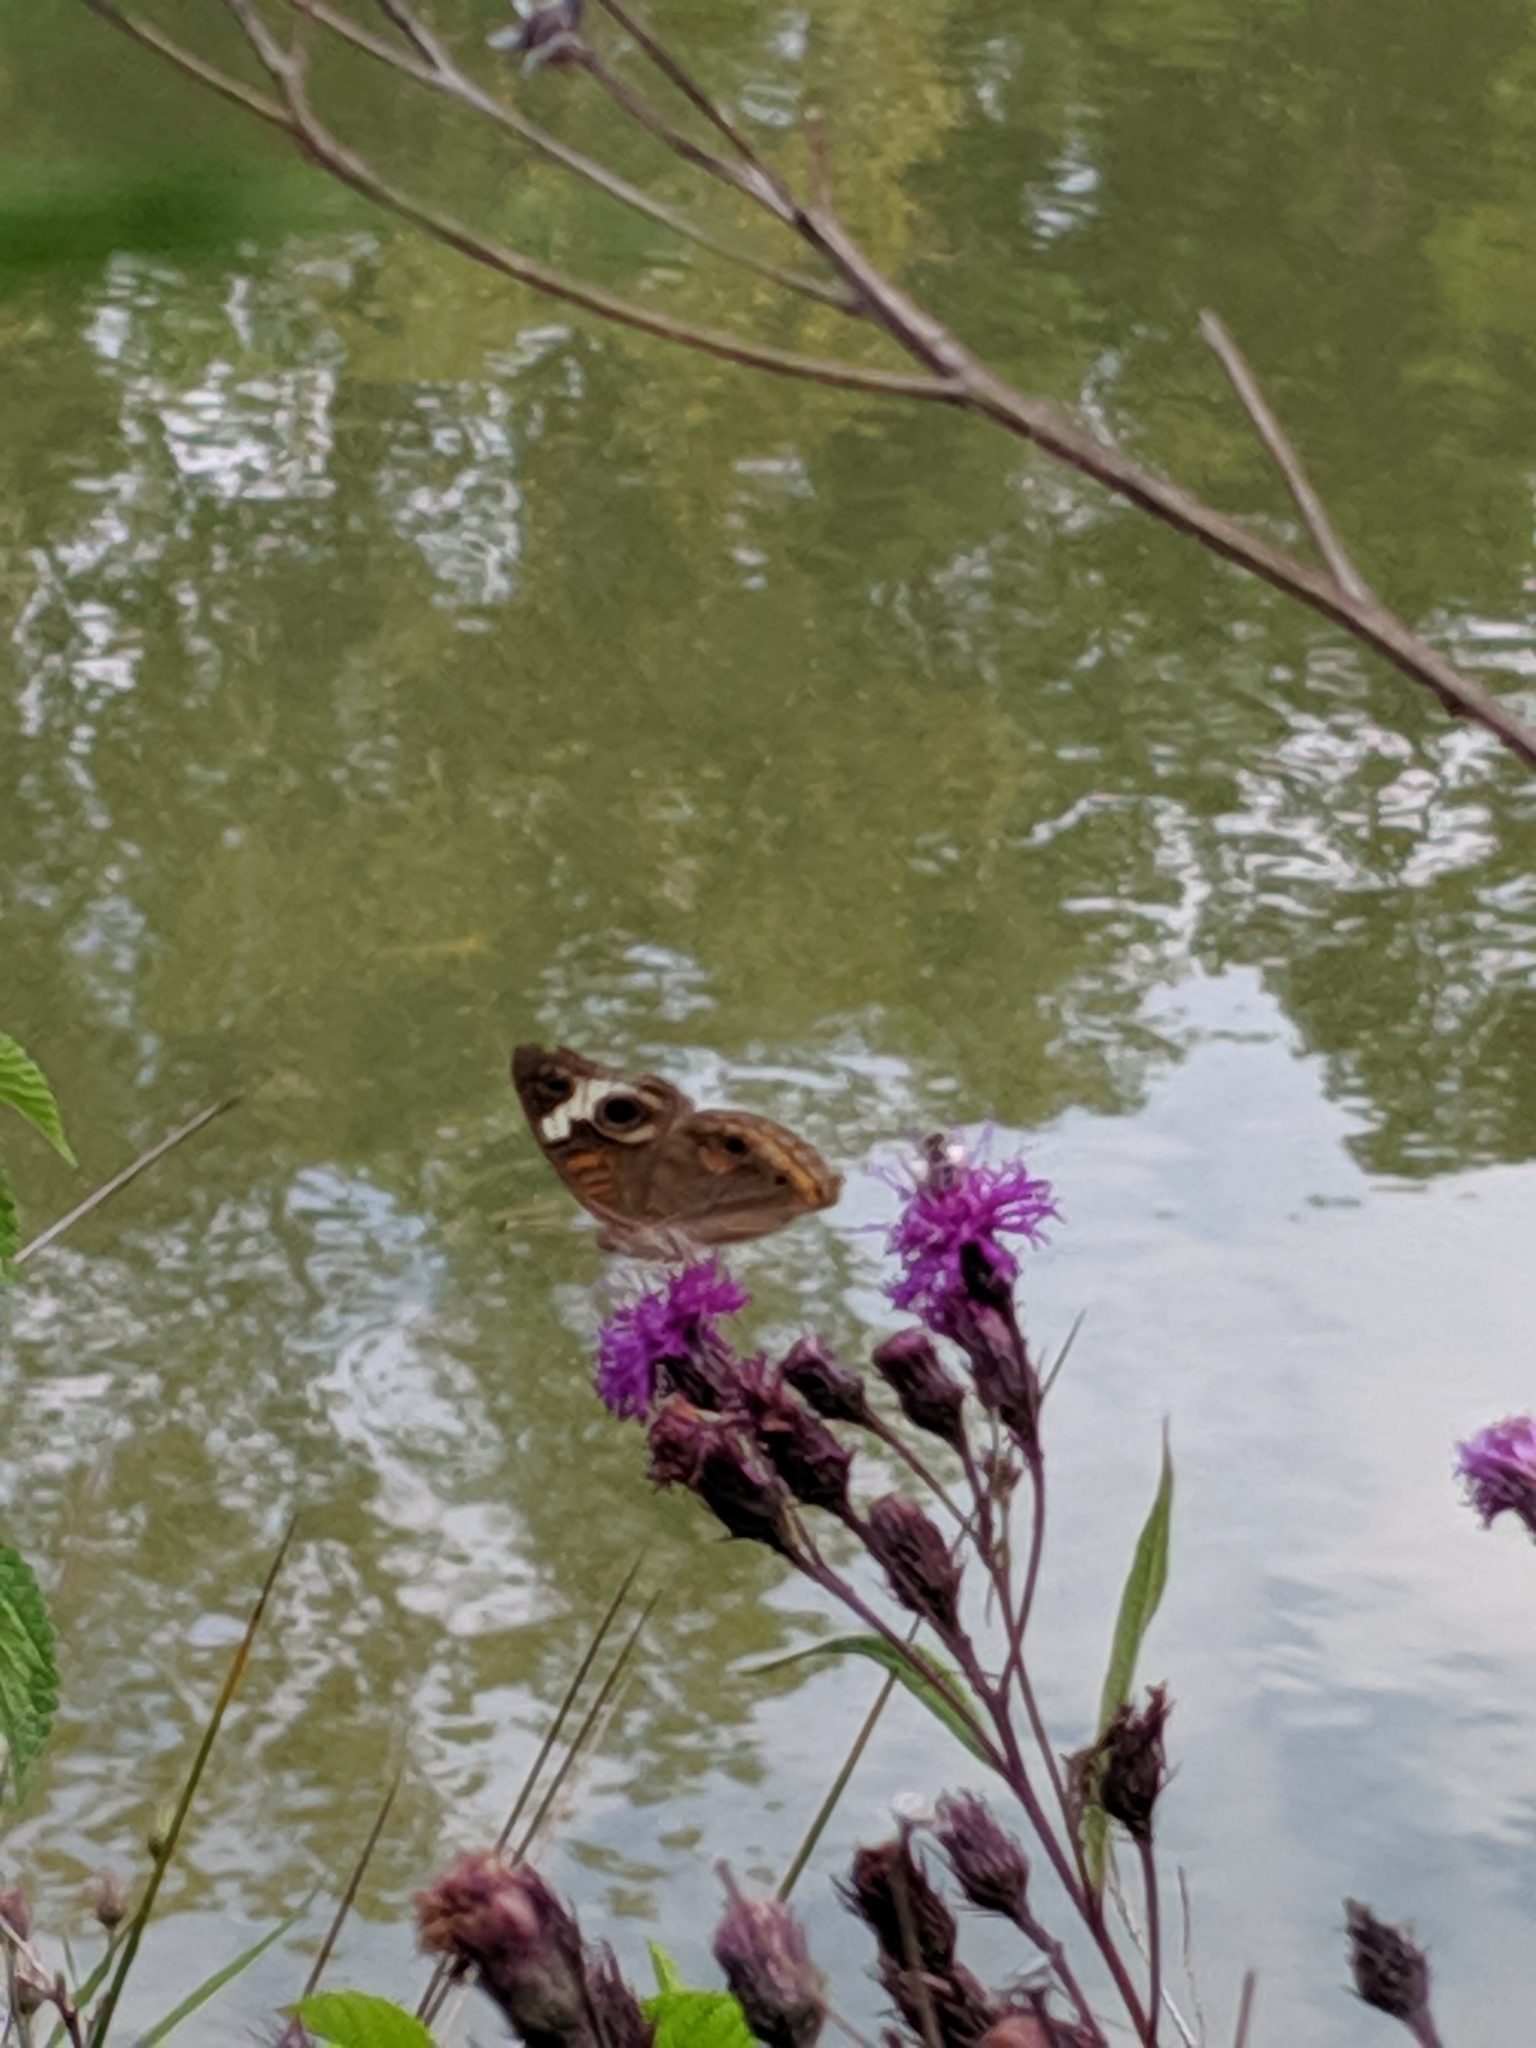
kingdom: Animalia
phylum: Arthropoda
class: Insecta
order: Lepidoptera
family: Nymphalidae
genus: Junonia
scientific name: Junonia coenia
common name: Common buckeye
